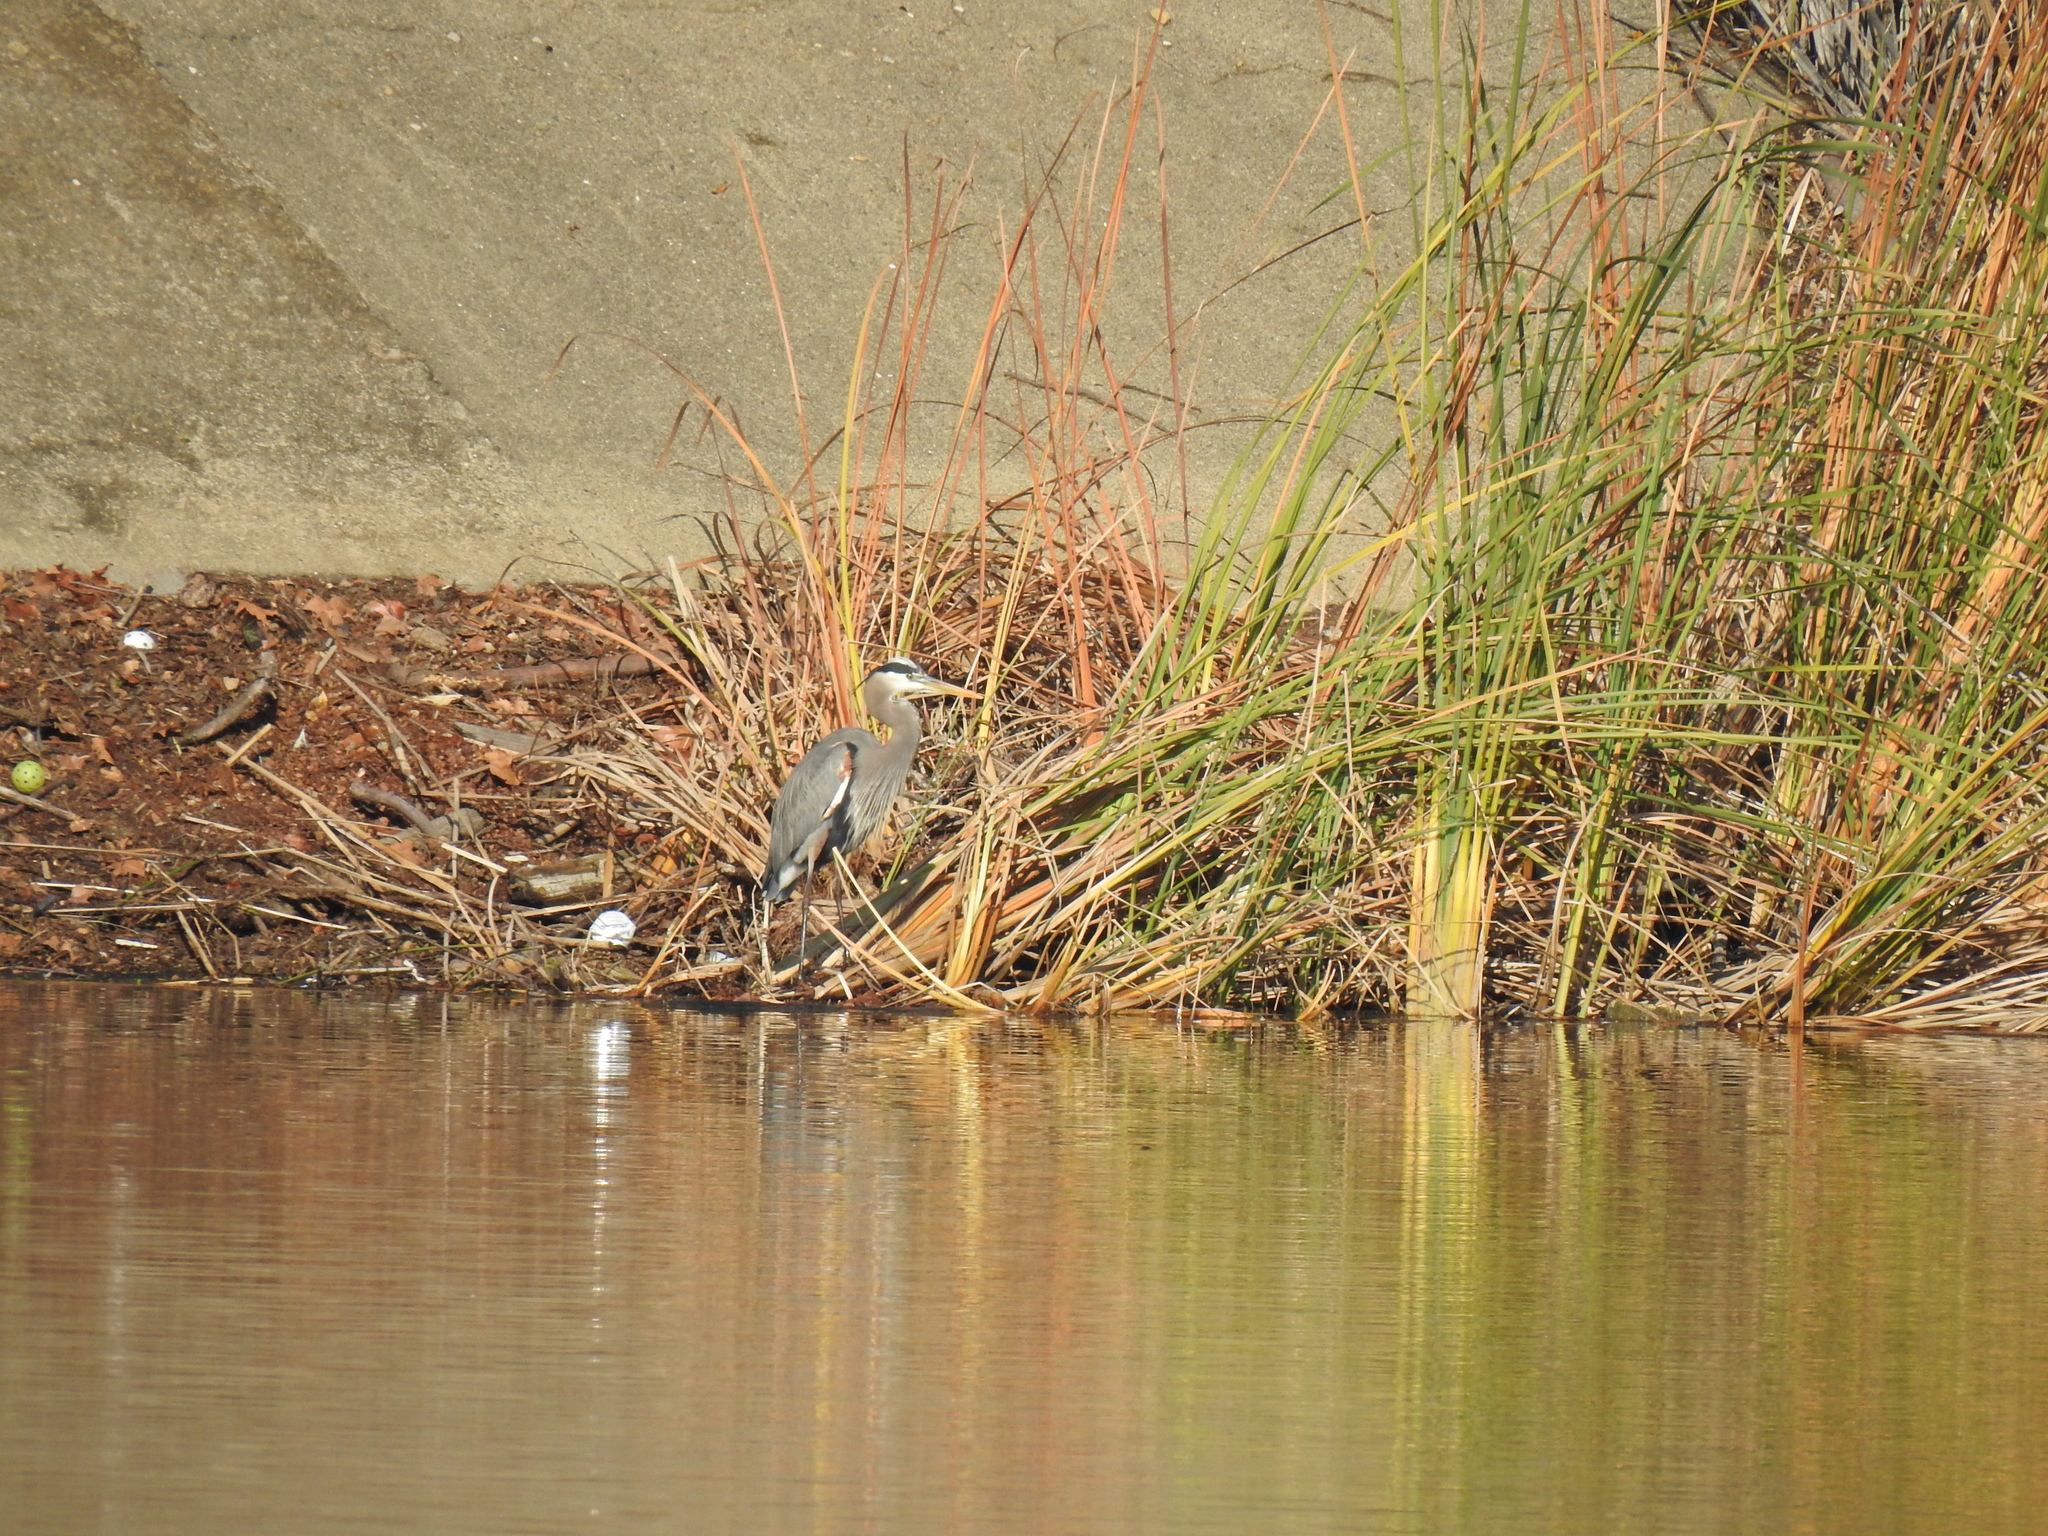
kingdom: Animalia
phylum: Chordata
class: Aves
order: Pelecaniformes
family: Ardeidae
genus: Ardea
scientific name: Ardea herodias
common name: Great blue heron
